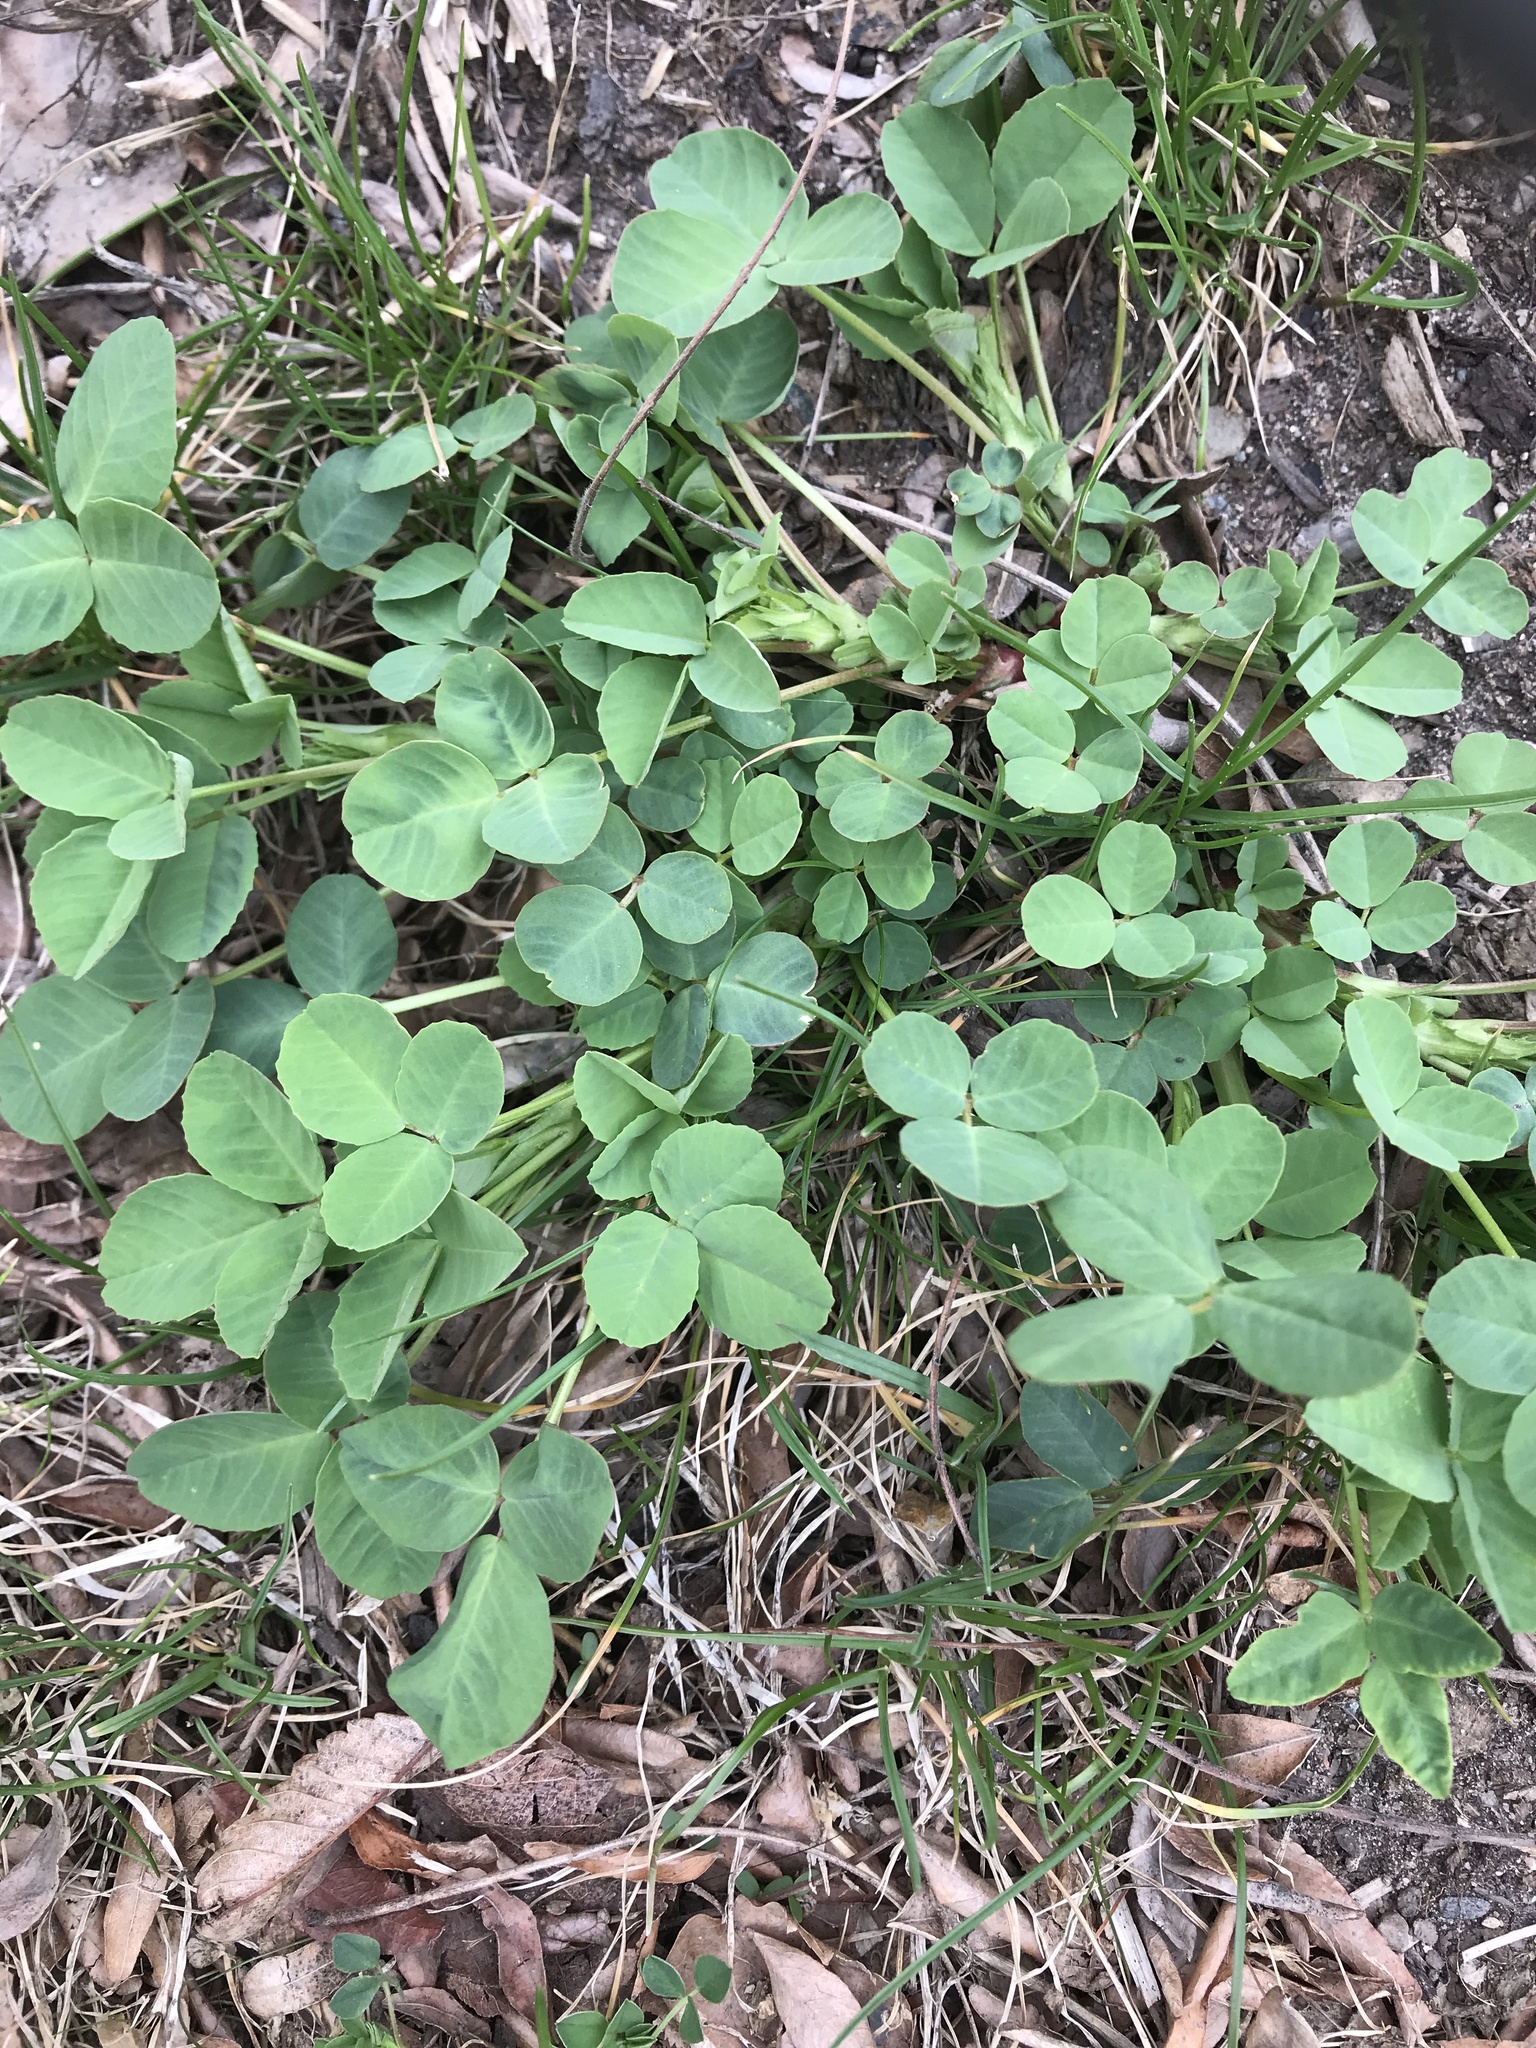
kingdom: Plantae
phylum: Tracheophyta
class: Magnoliopsida
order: Fabales
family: Fabaceae
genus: Trifolium
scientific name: Trifolium repens
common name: White clover
